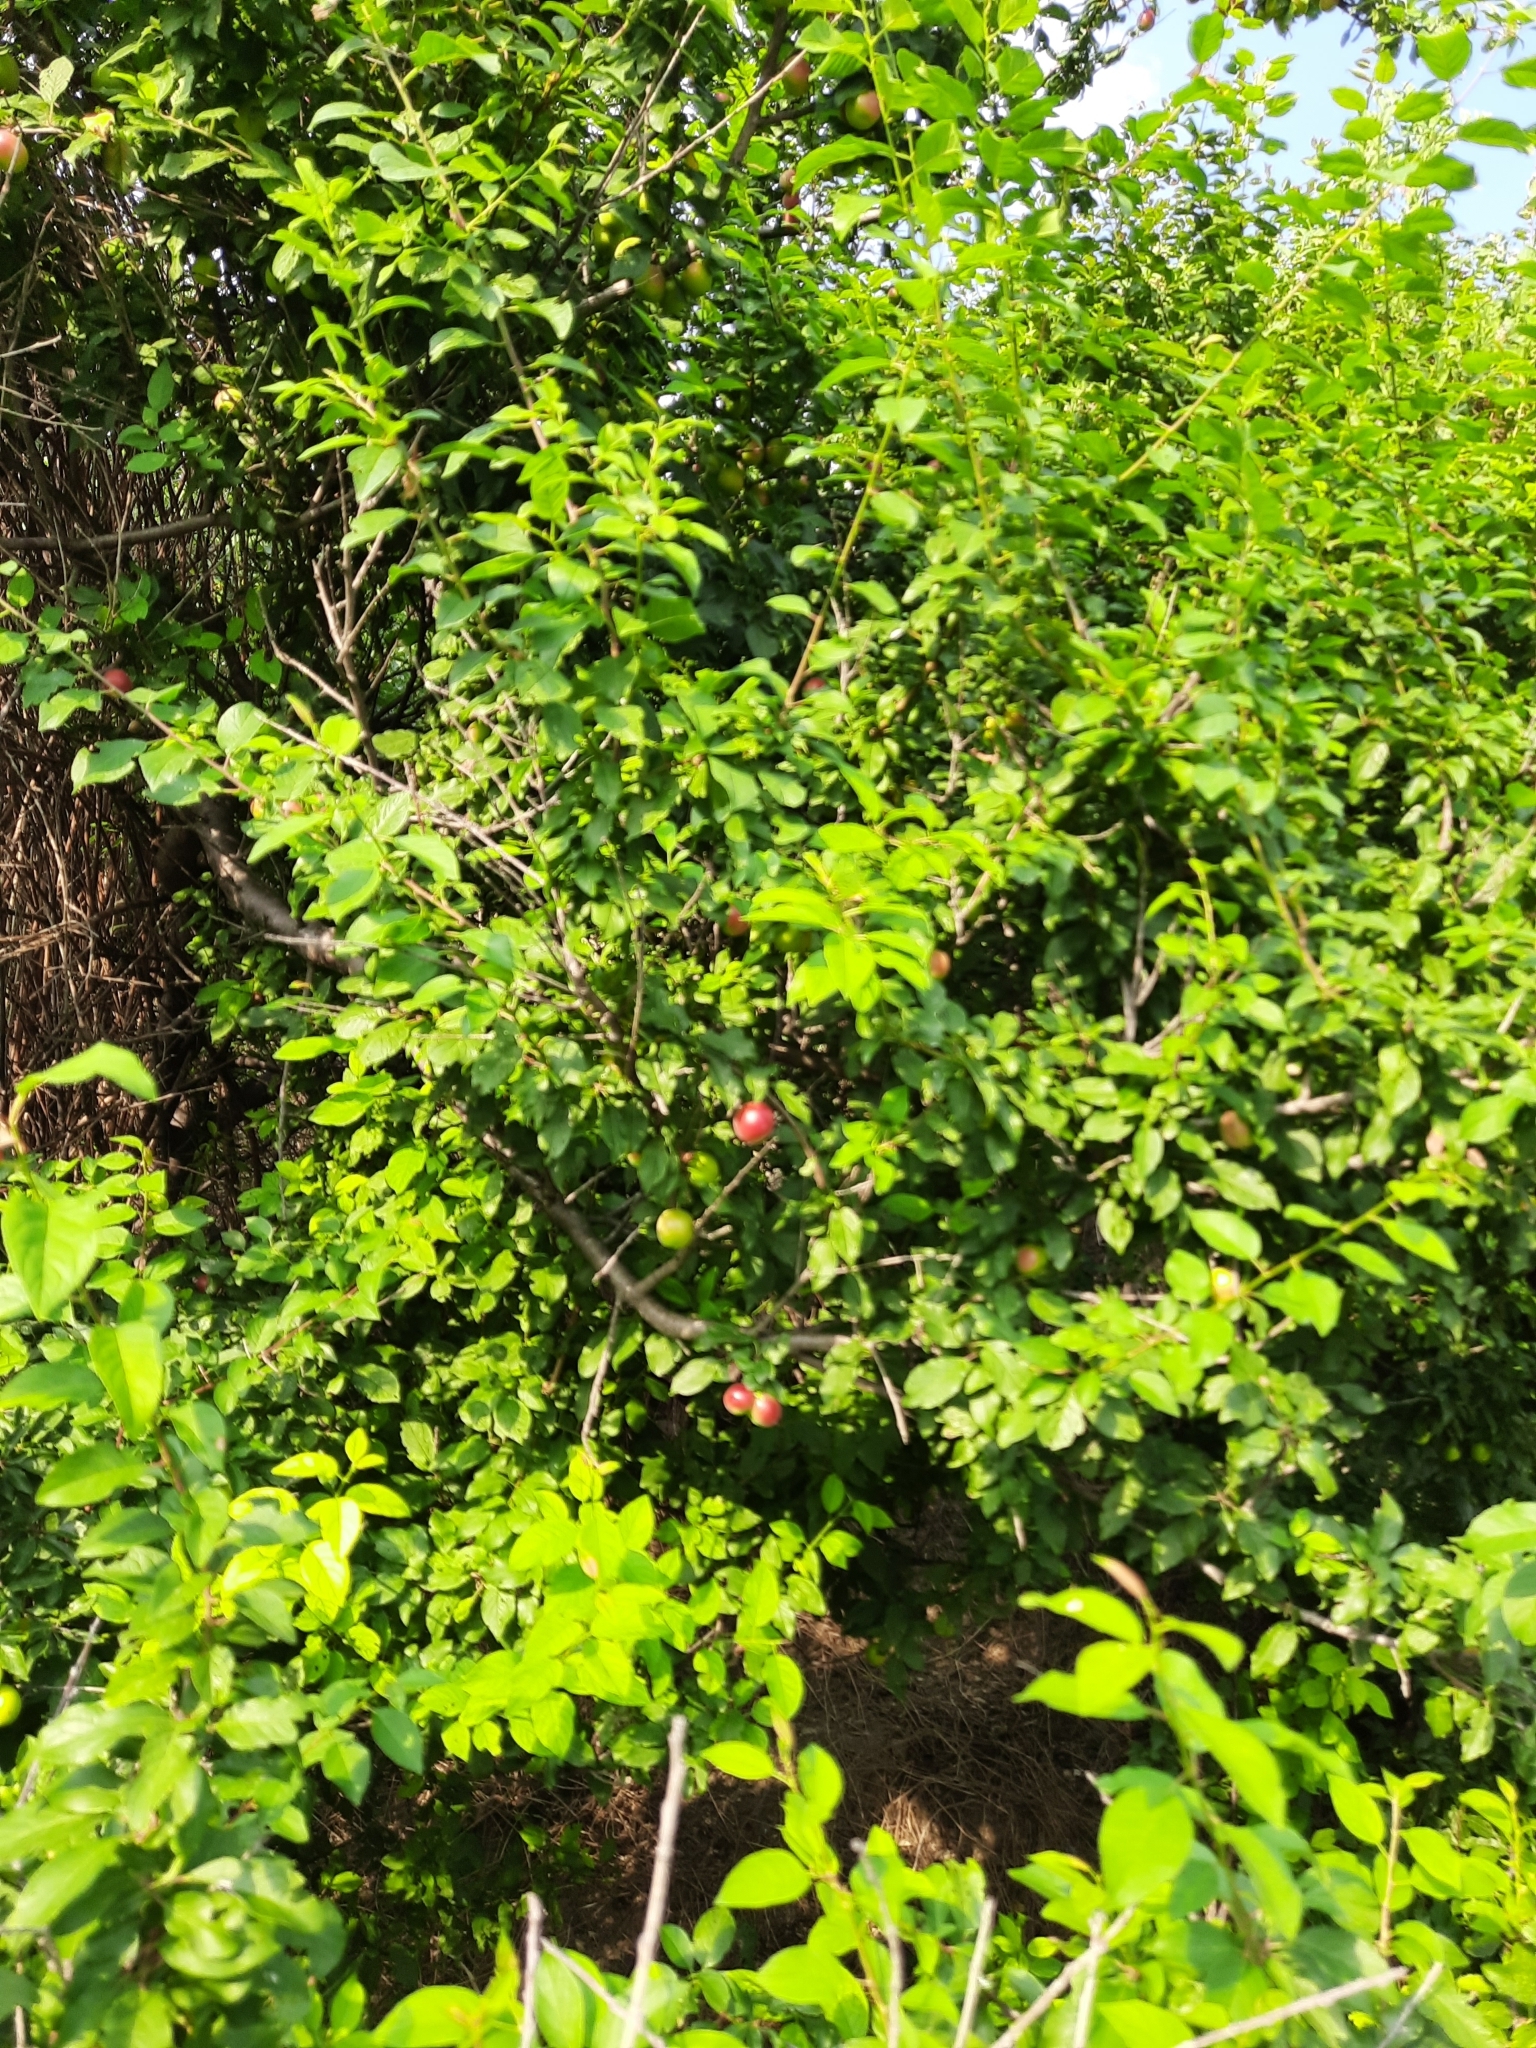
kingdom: Plantae
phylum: Tracheophyta
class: Magnoliopsida
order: Rosales
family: Rosaceae
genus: Prunus
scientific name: Prunus cerasifera
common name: Cherry plum
